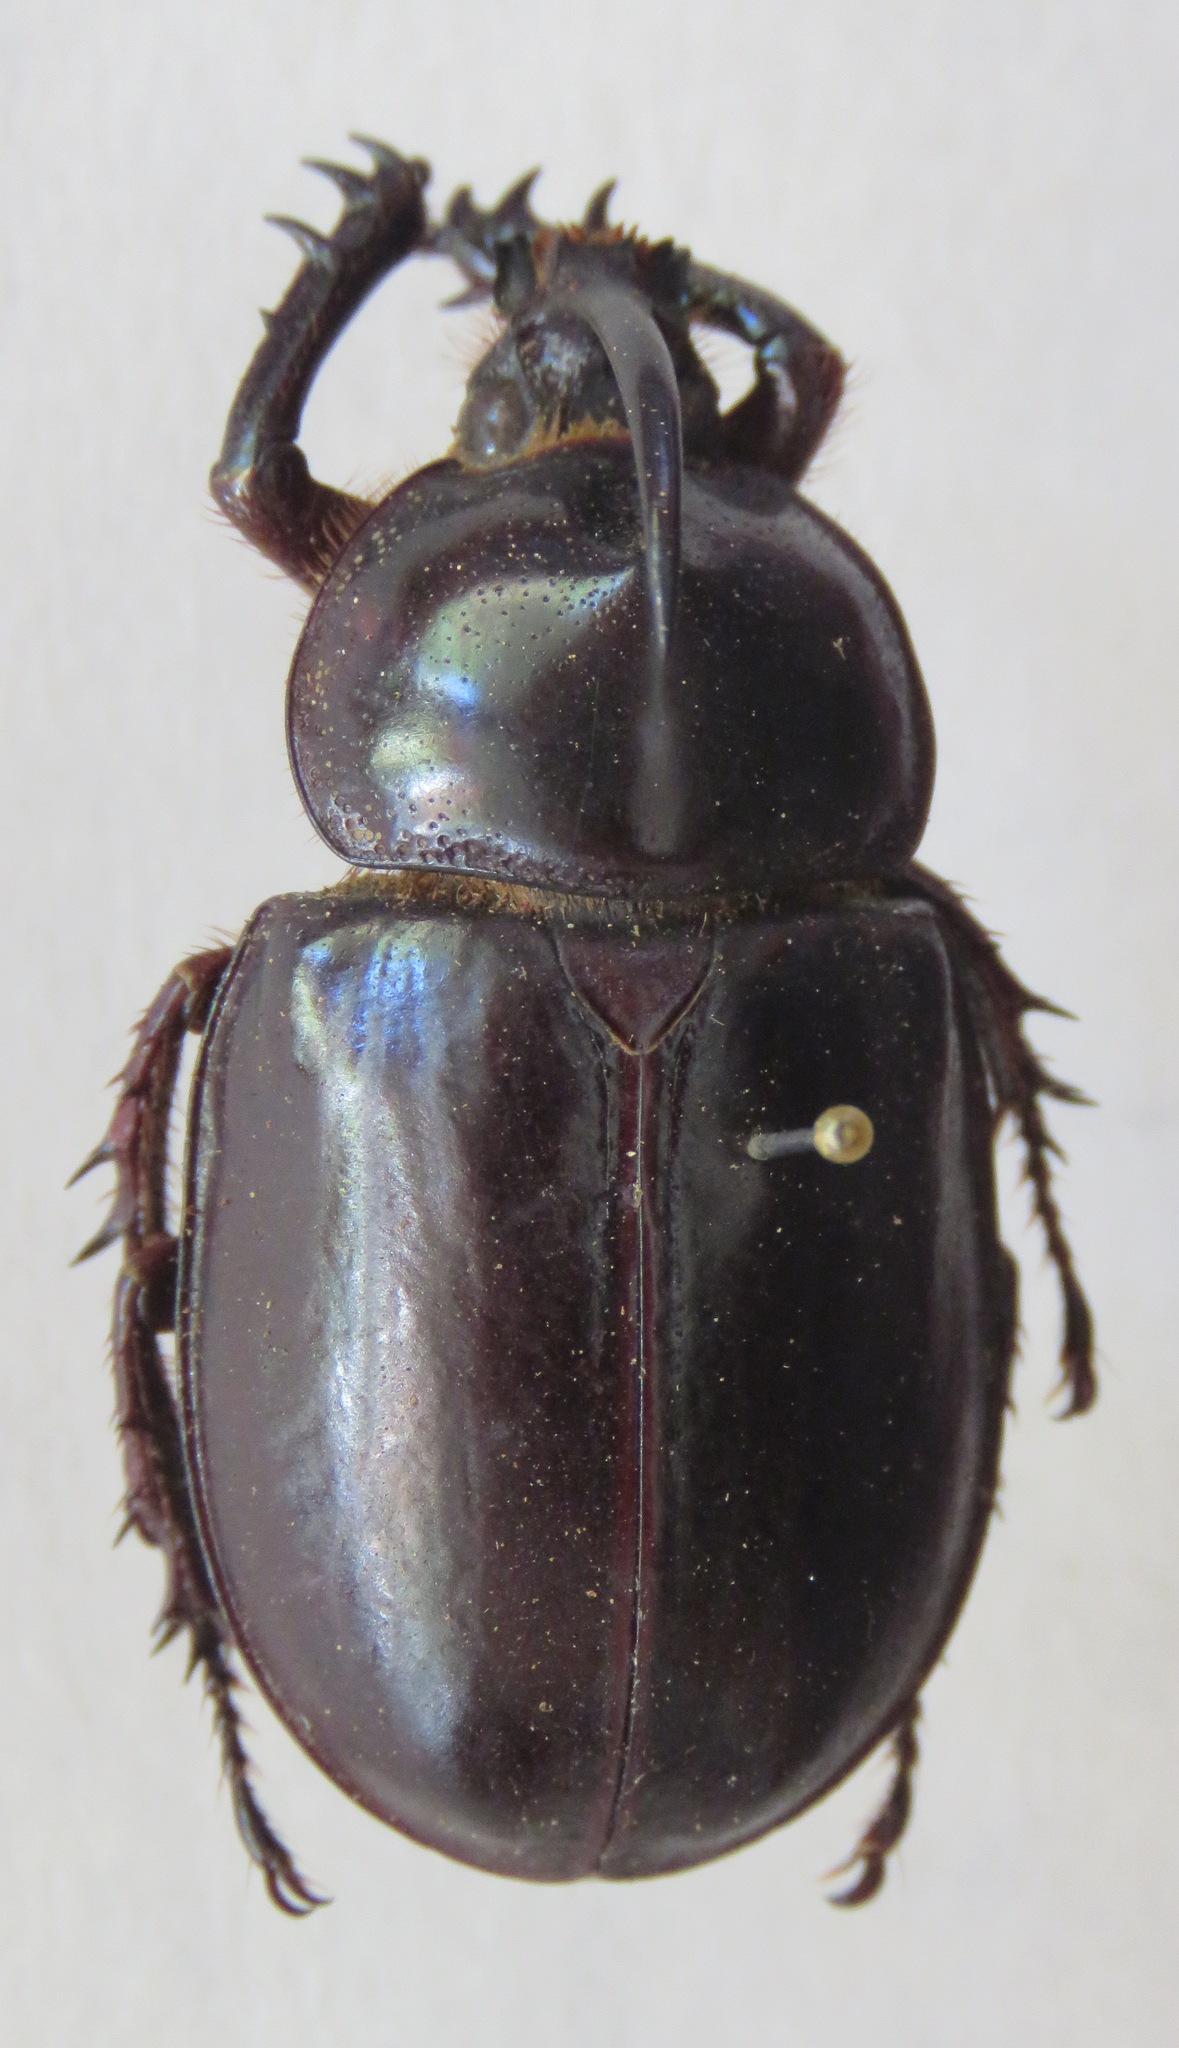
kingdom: Animalia
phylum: Arthropoda
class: Insecta
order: Coleoptera
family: Scarabaeidae
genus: Golofa
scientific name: Golofa tersander
